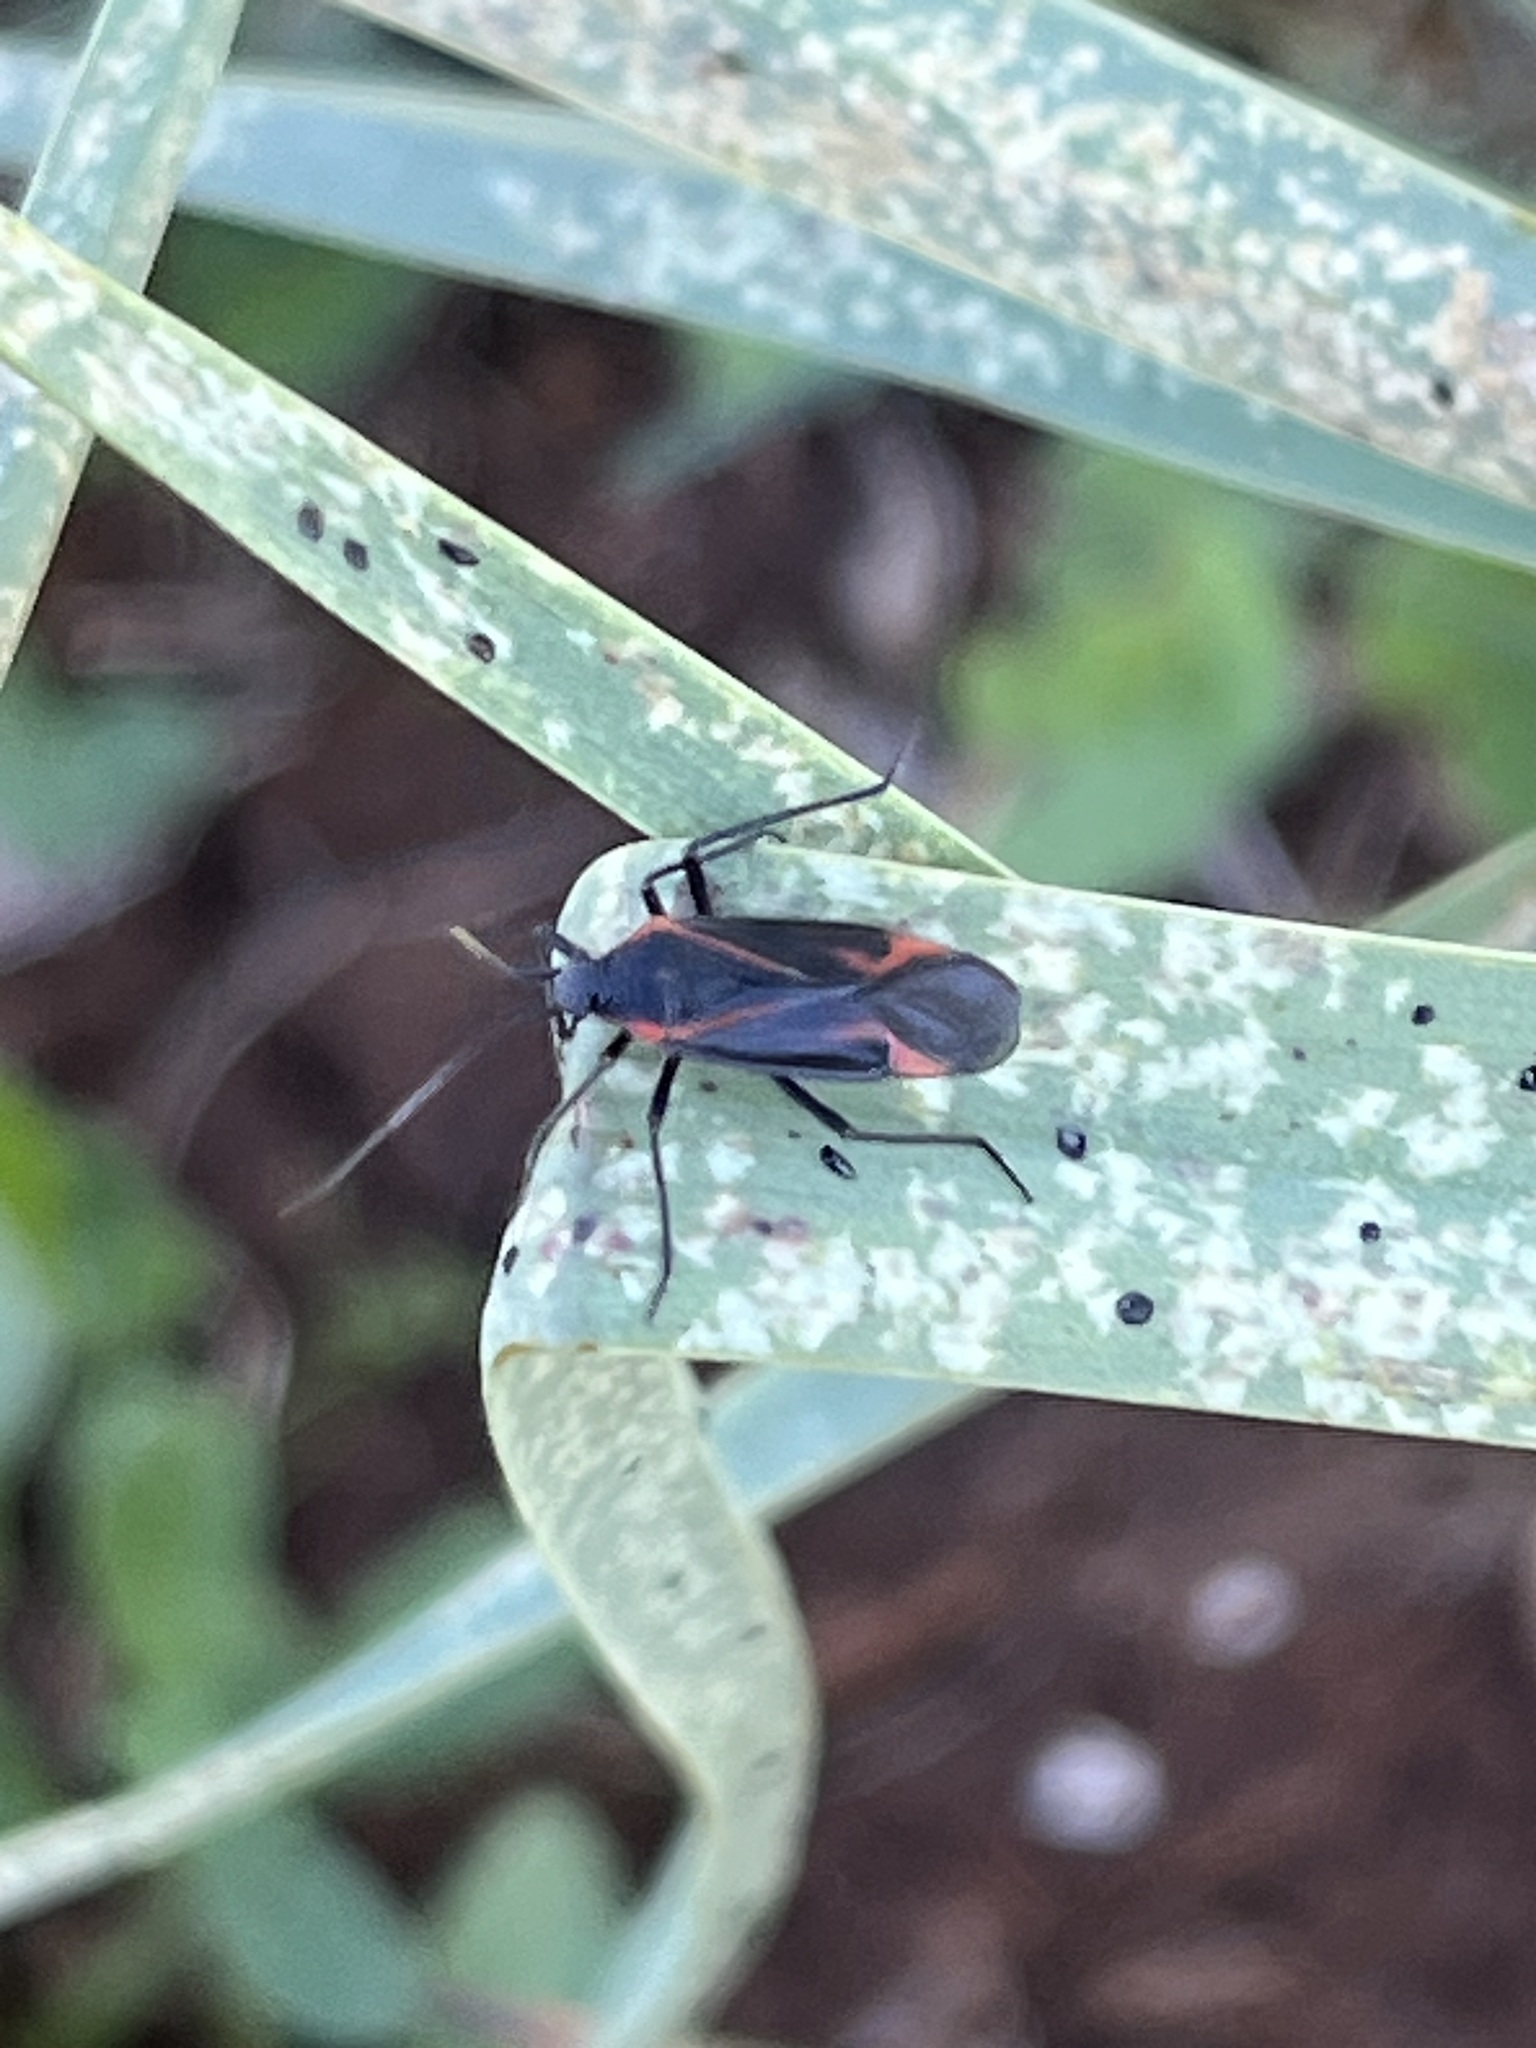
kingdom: Animalia
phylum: Arthropoda
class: Insecta
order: Hemiptera
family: Miridae
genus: Horistus
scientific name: Horistus turcomanus
